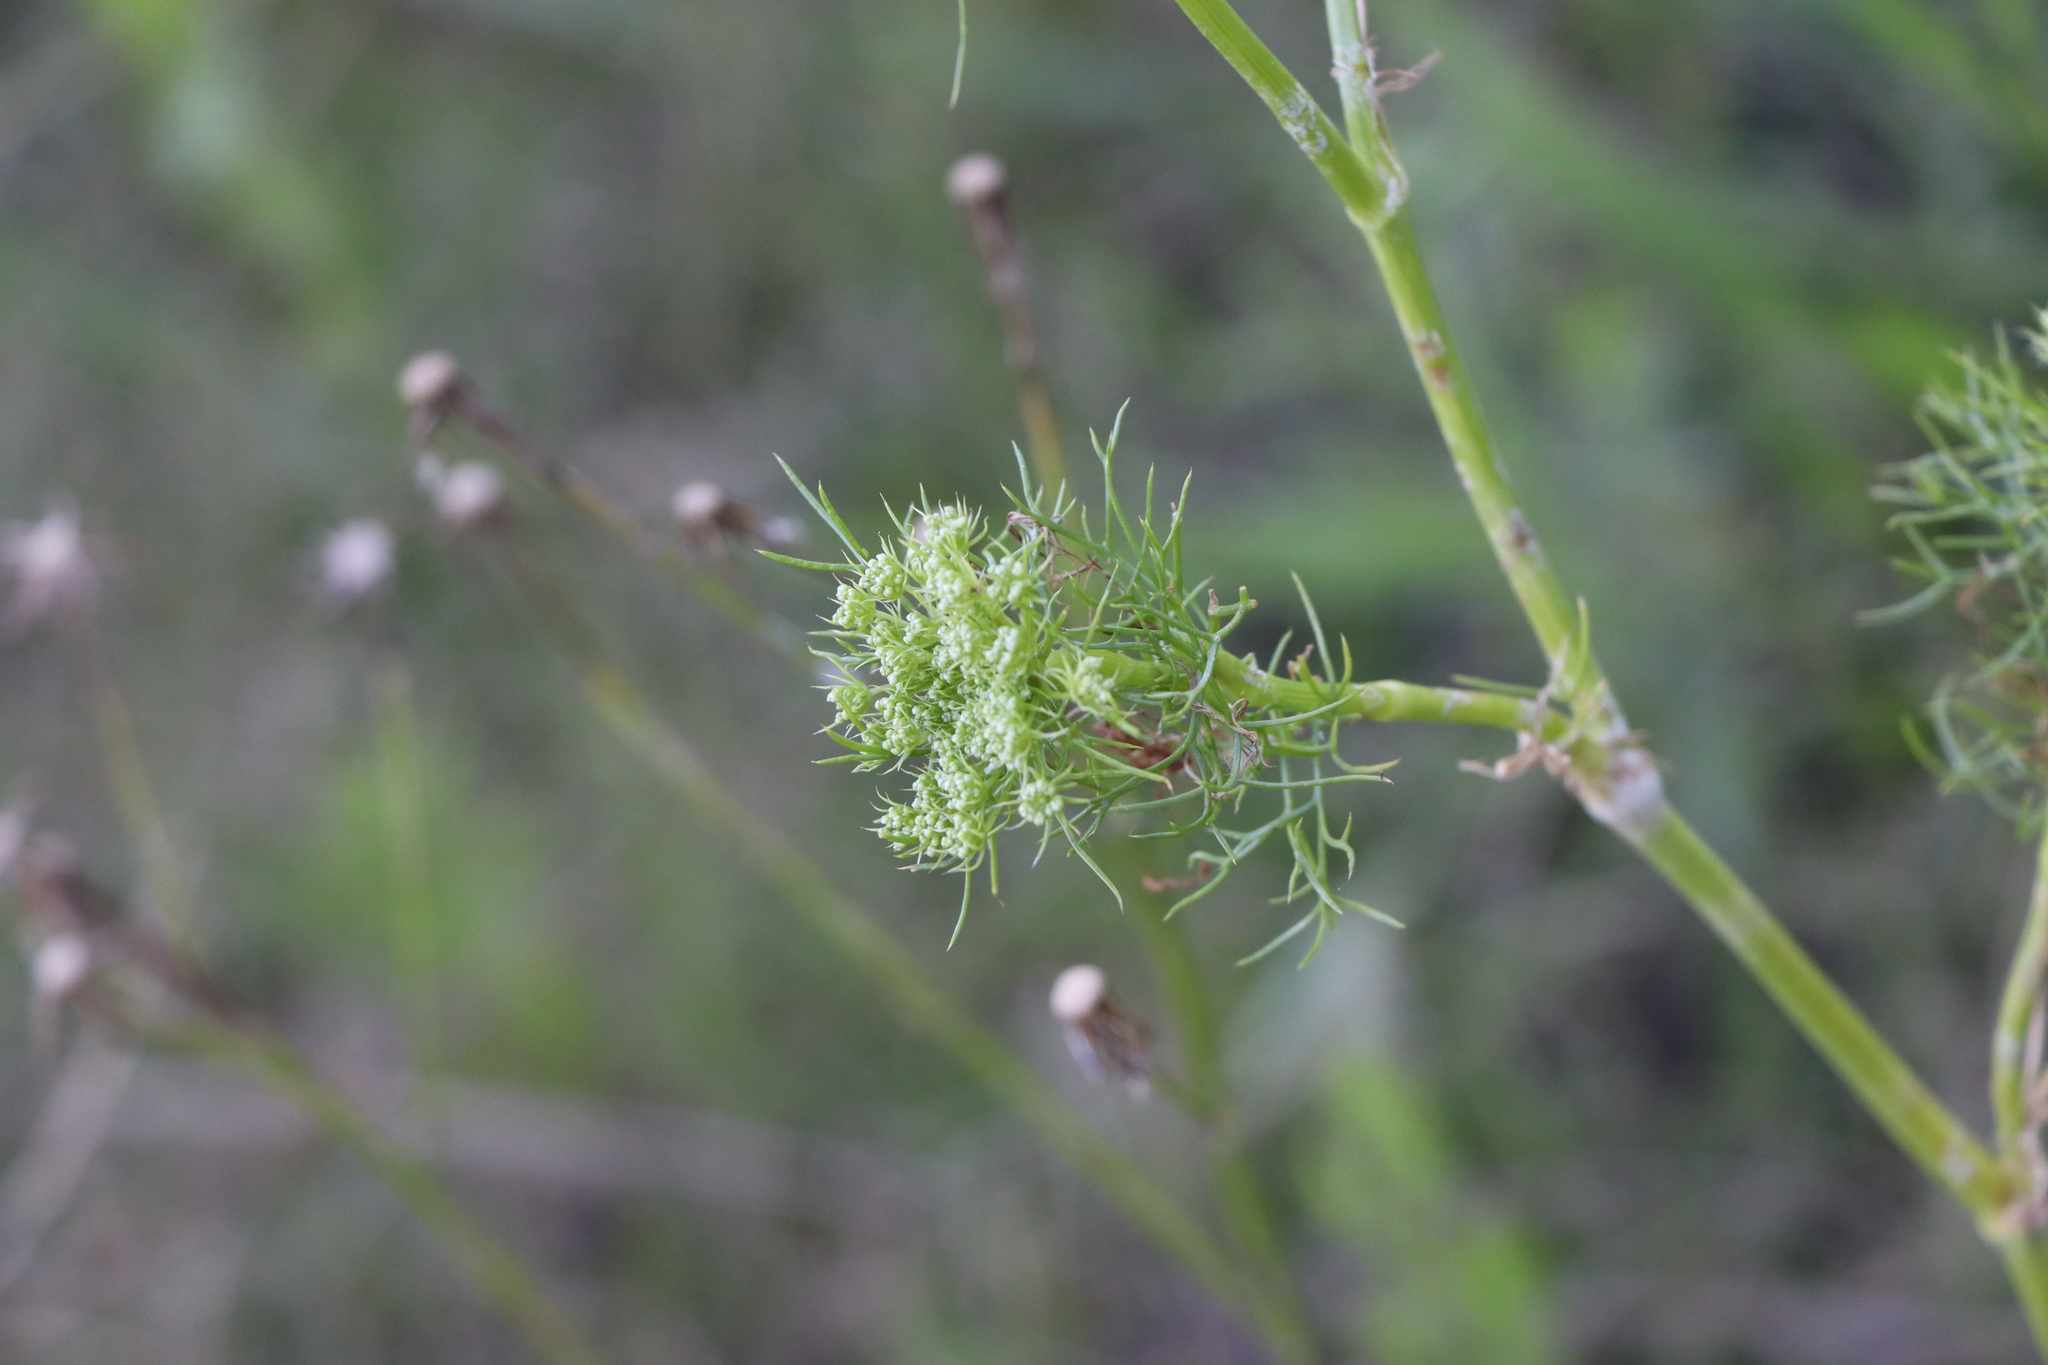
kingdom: Plantae
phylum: Tracheophyta
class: Magnoliopsida
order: Apiales
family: Apiaceae
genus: Visnaga
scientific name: Visnaga daucoides
